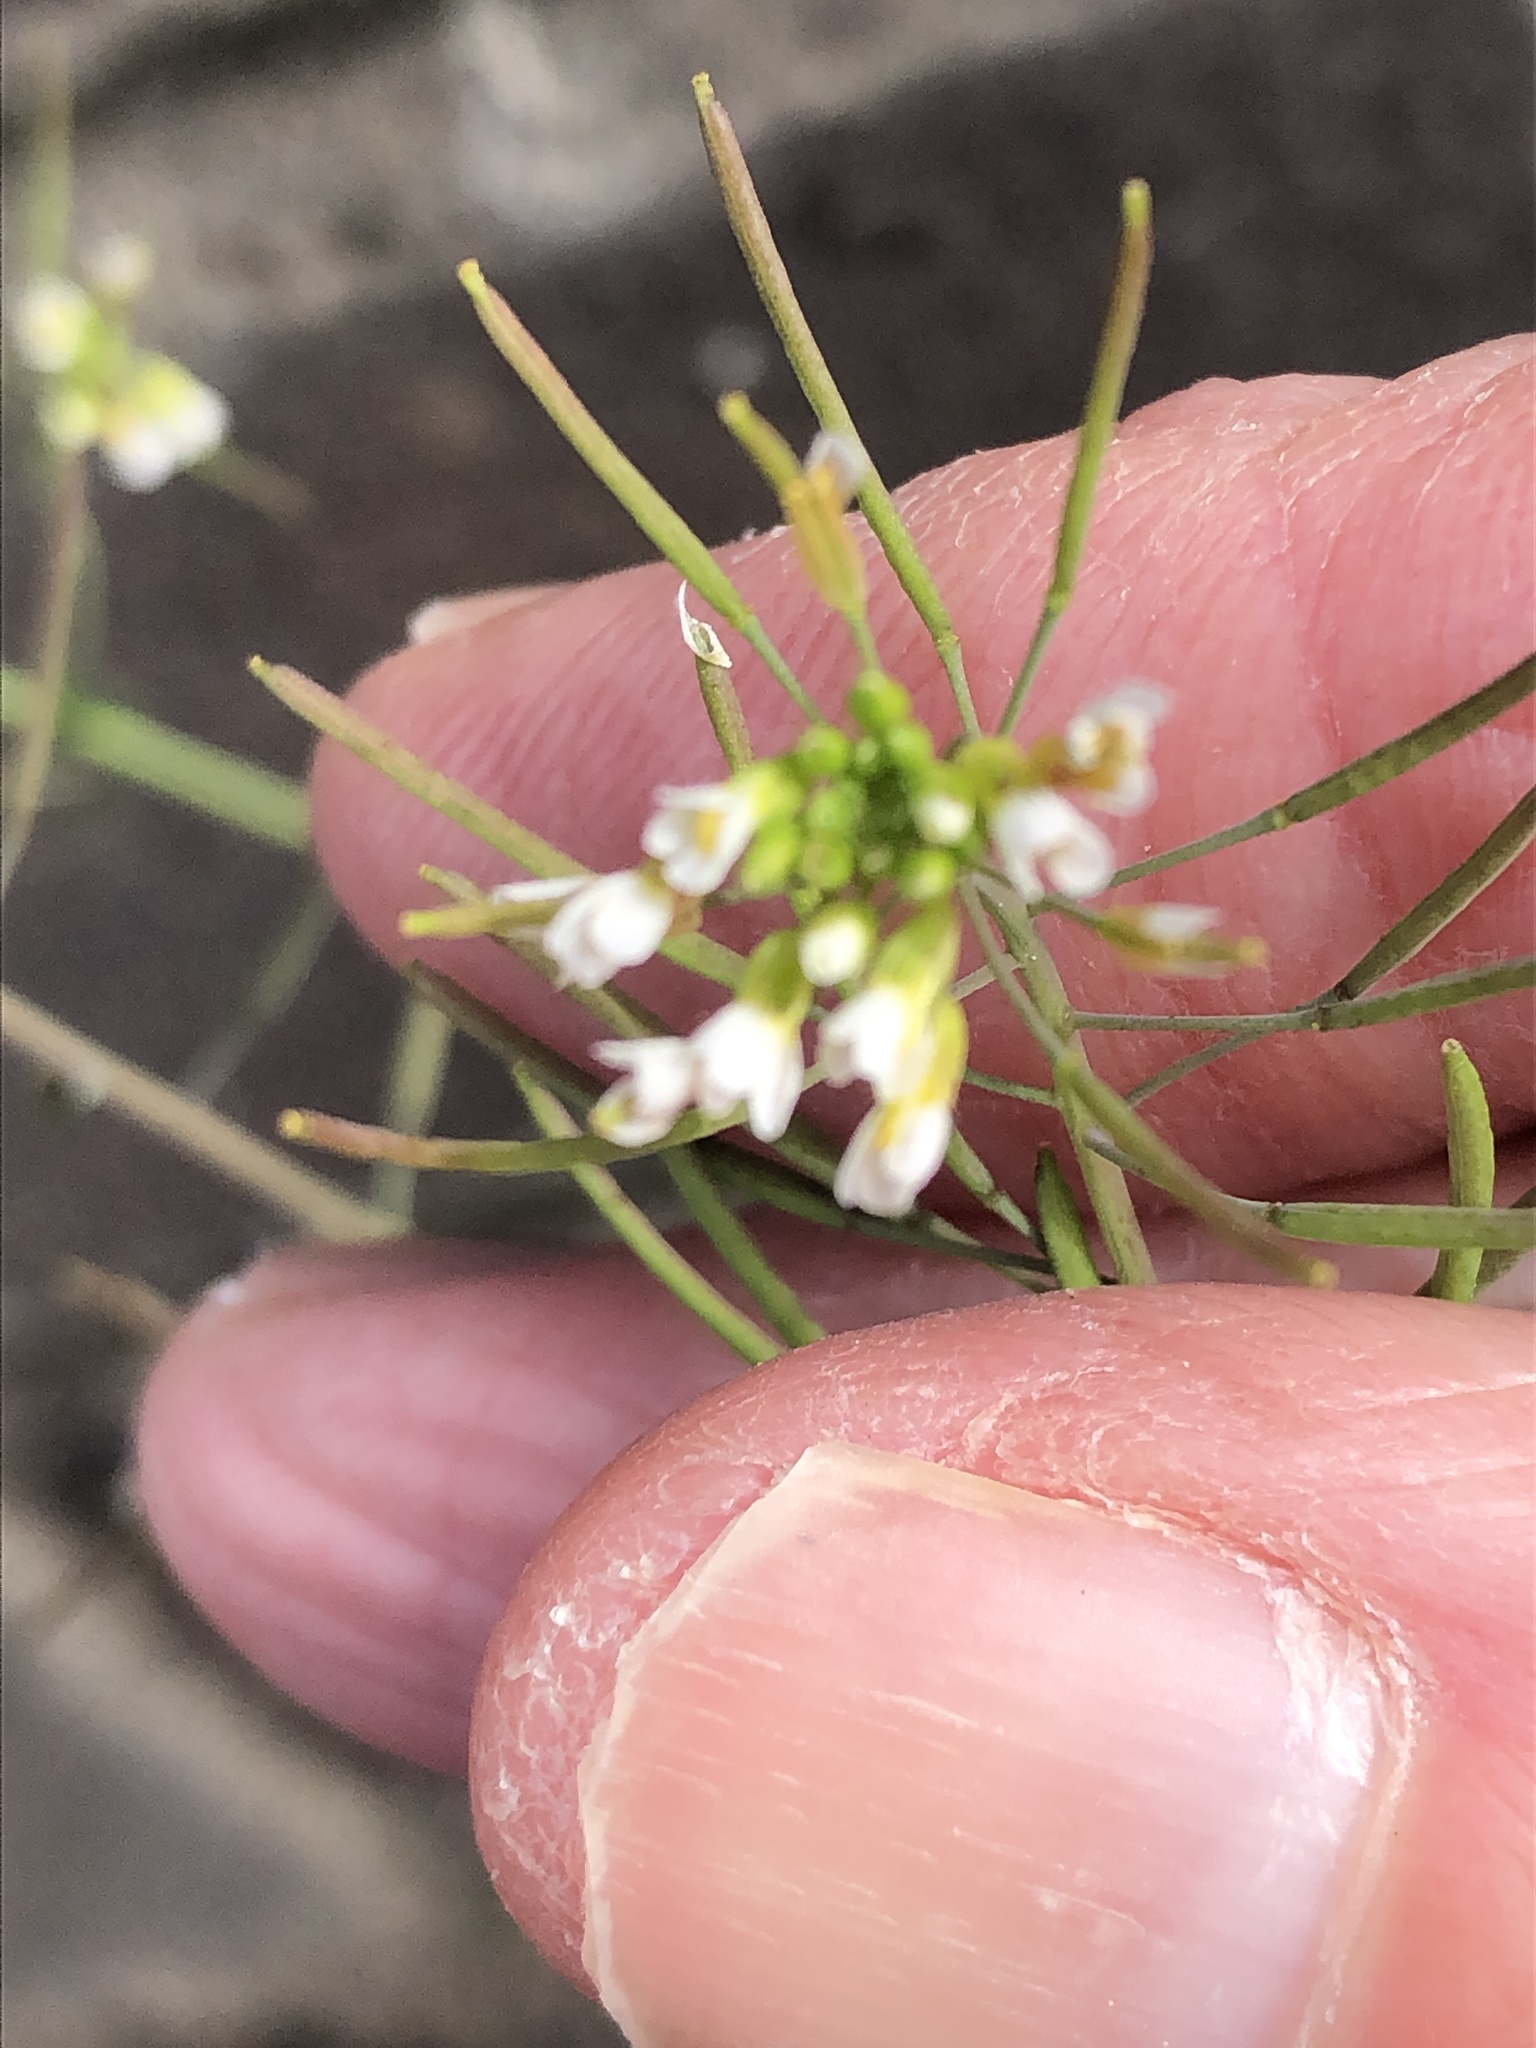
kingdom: Plantae
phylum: Tracheophyta
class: Magnoliopsida
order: Brassicales
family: Brassicaceae
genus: Arabidopsis
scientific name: Arabidopsis thaliana
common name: Thale cress
